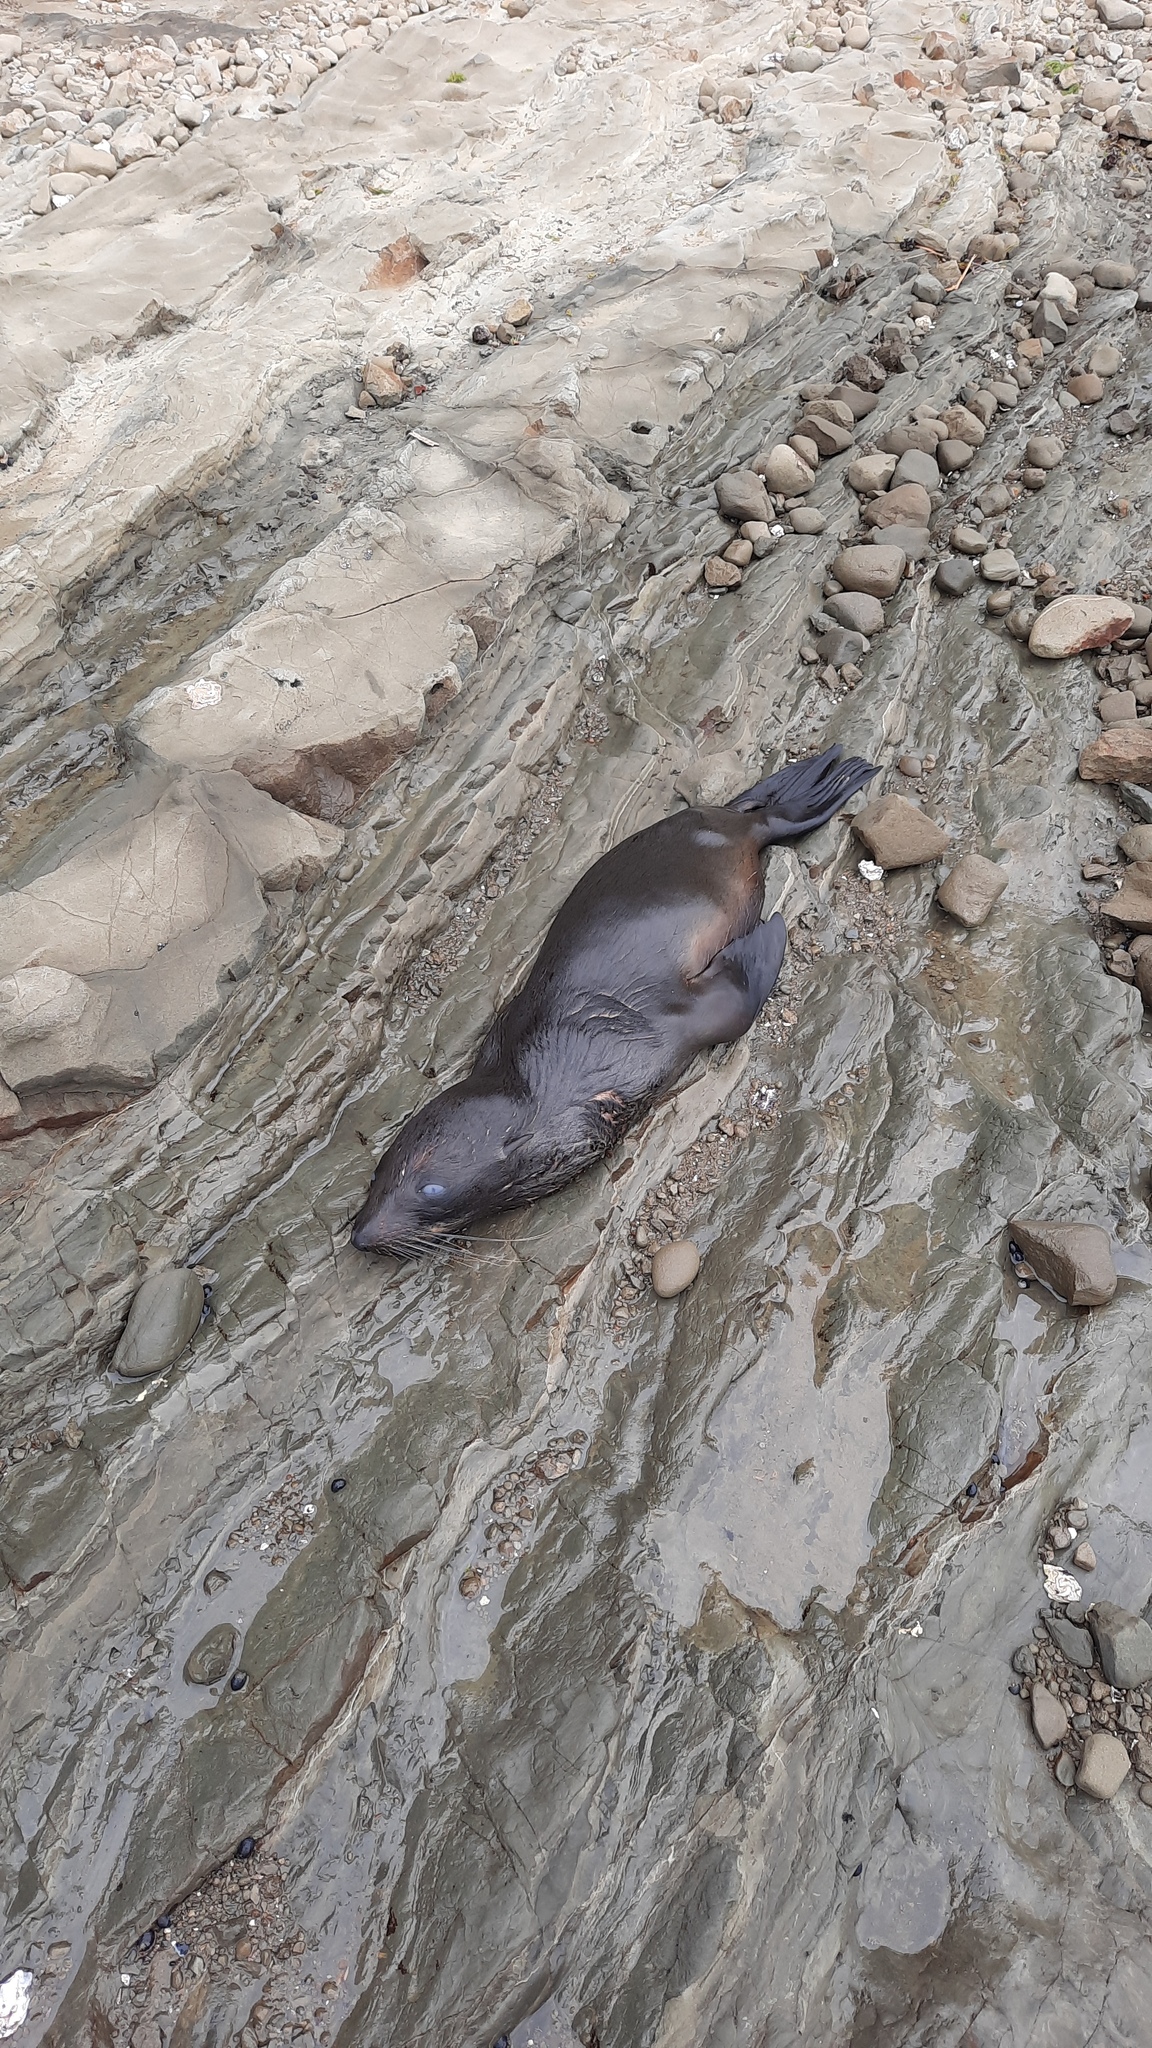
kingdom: Animalia
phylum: Chordata
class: Mammalia
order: Carnivora
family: Otariidae
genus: Arctocephalus
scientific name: Arctocephalus forsteri
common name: New zealand fur seal
